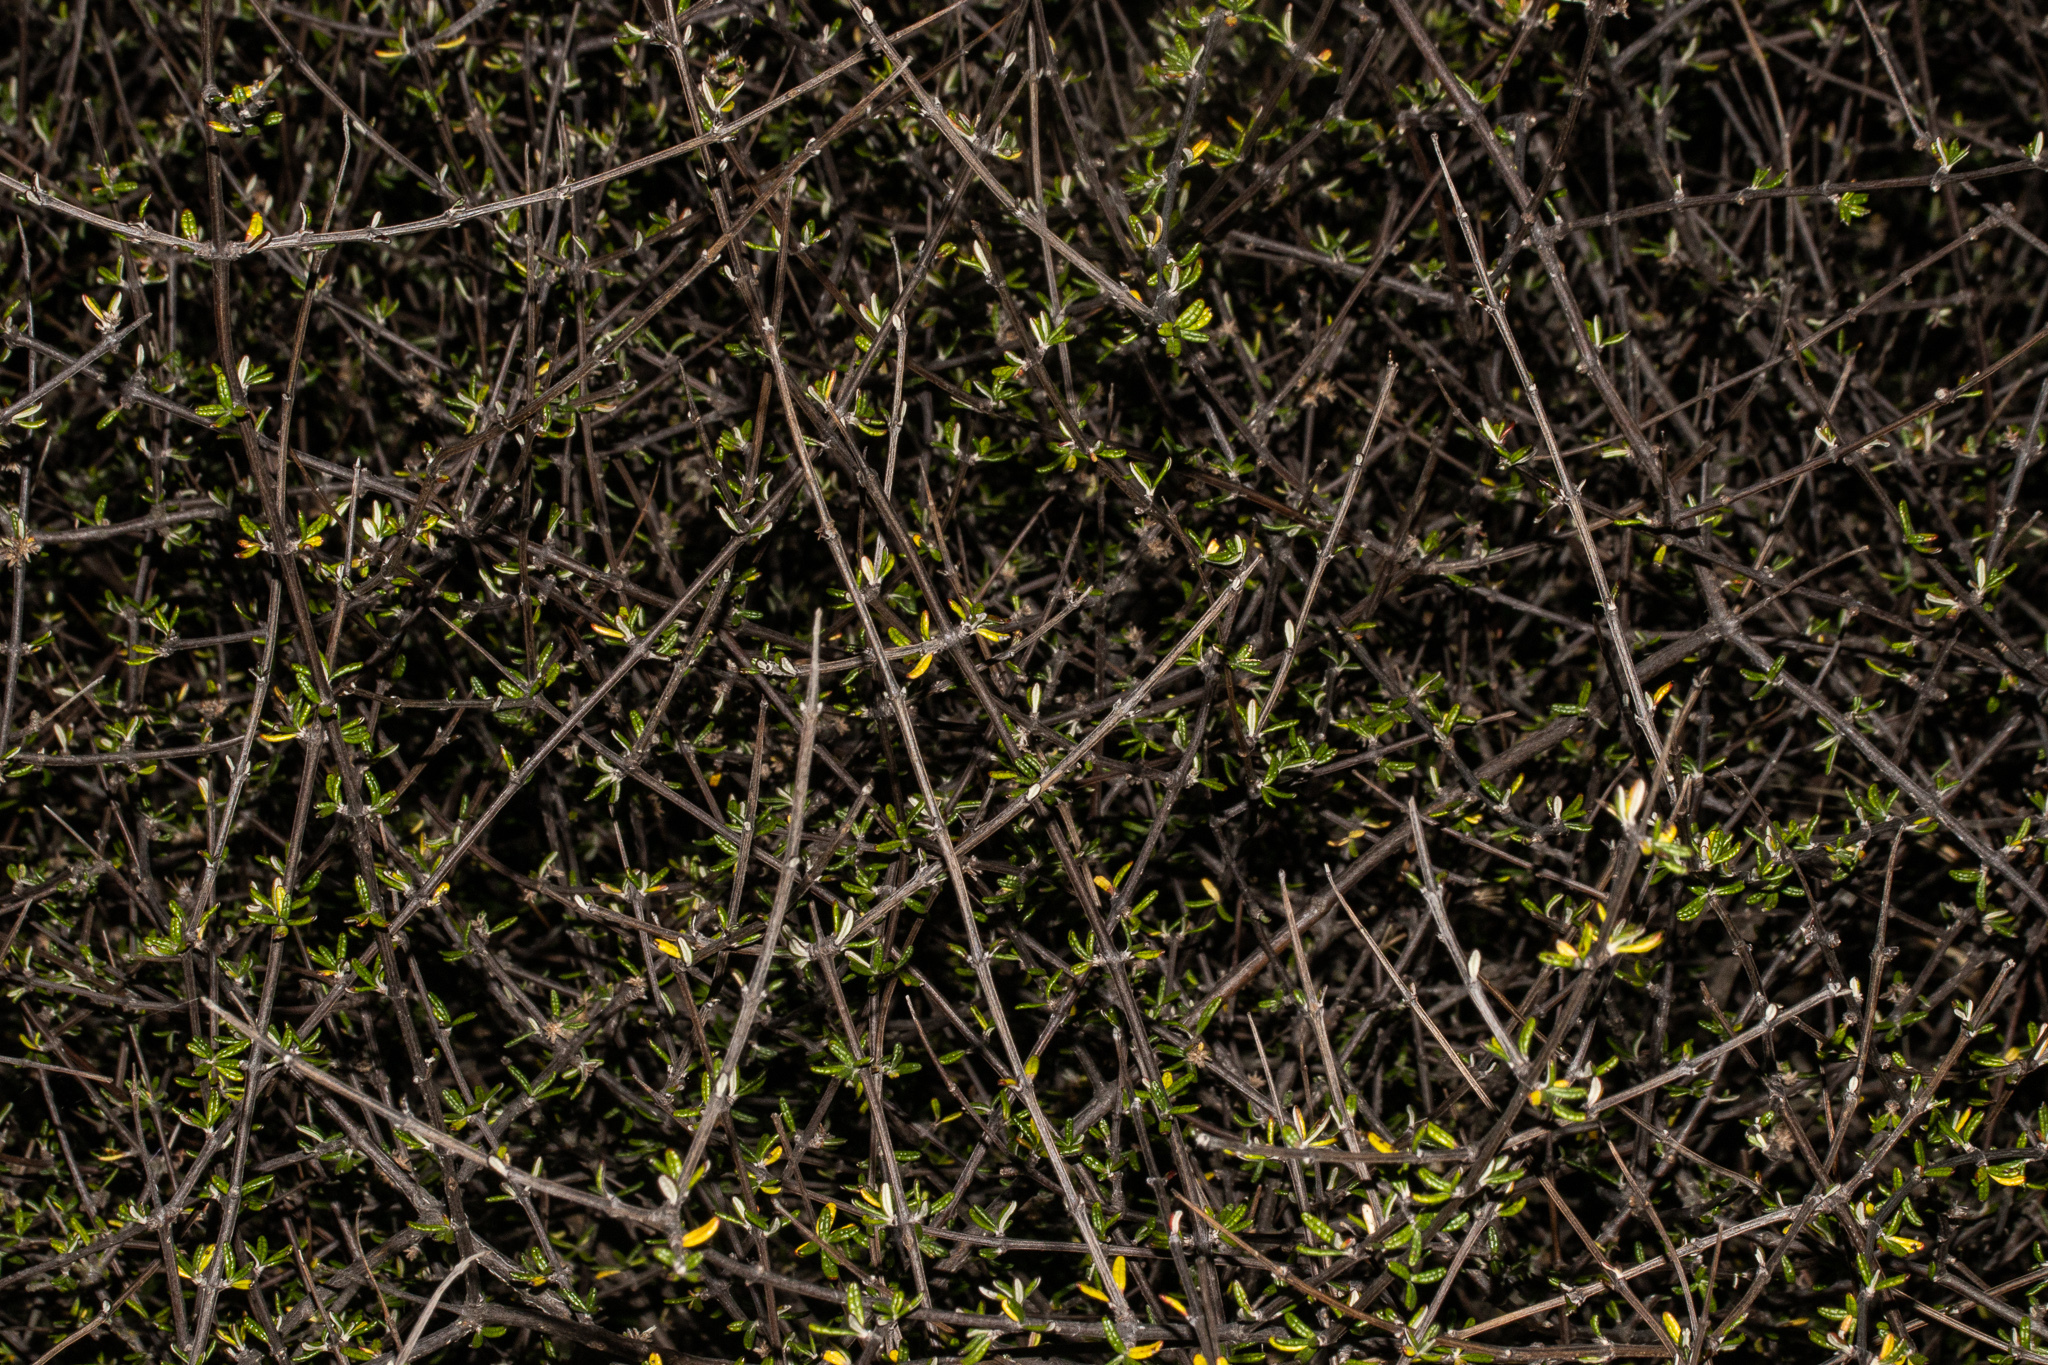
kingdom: Plantae
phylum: Tracheophyta
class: Magnoliopsida
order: Asterales
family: Asteraceae
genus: Olearia
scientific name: Olearia bullata
